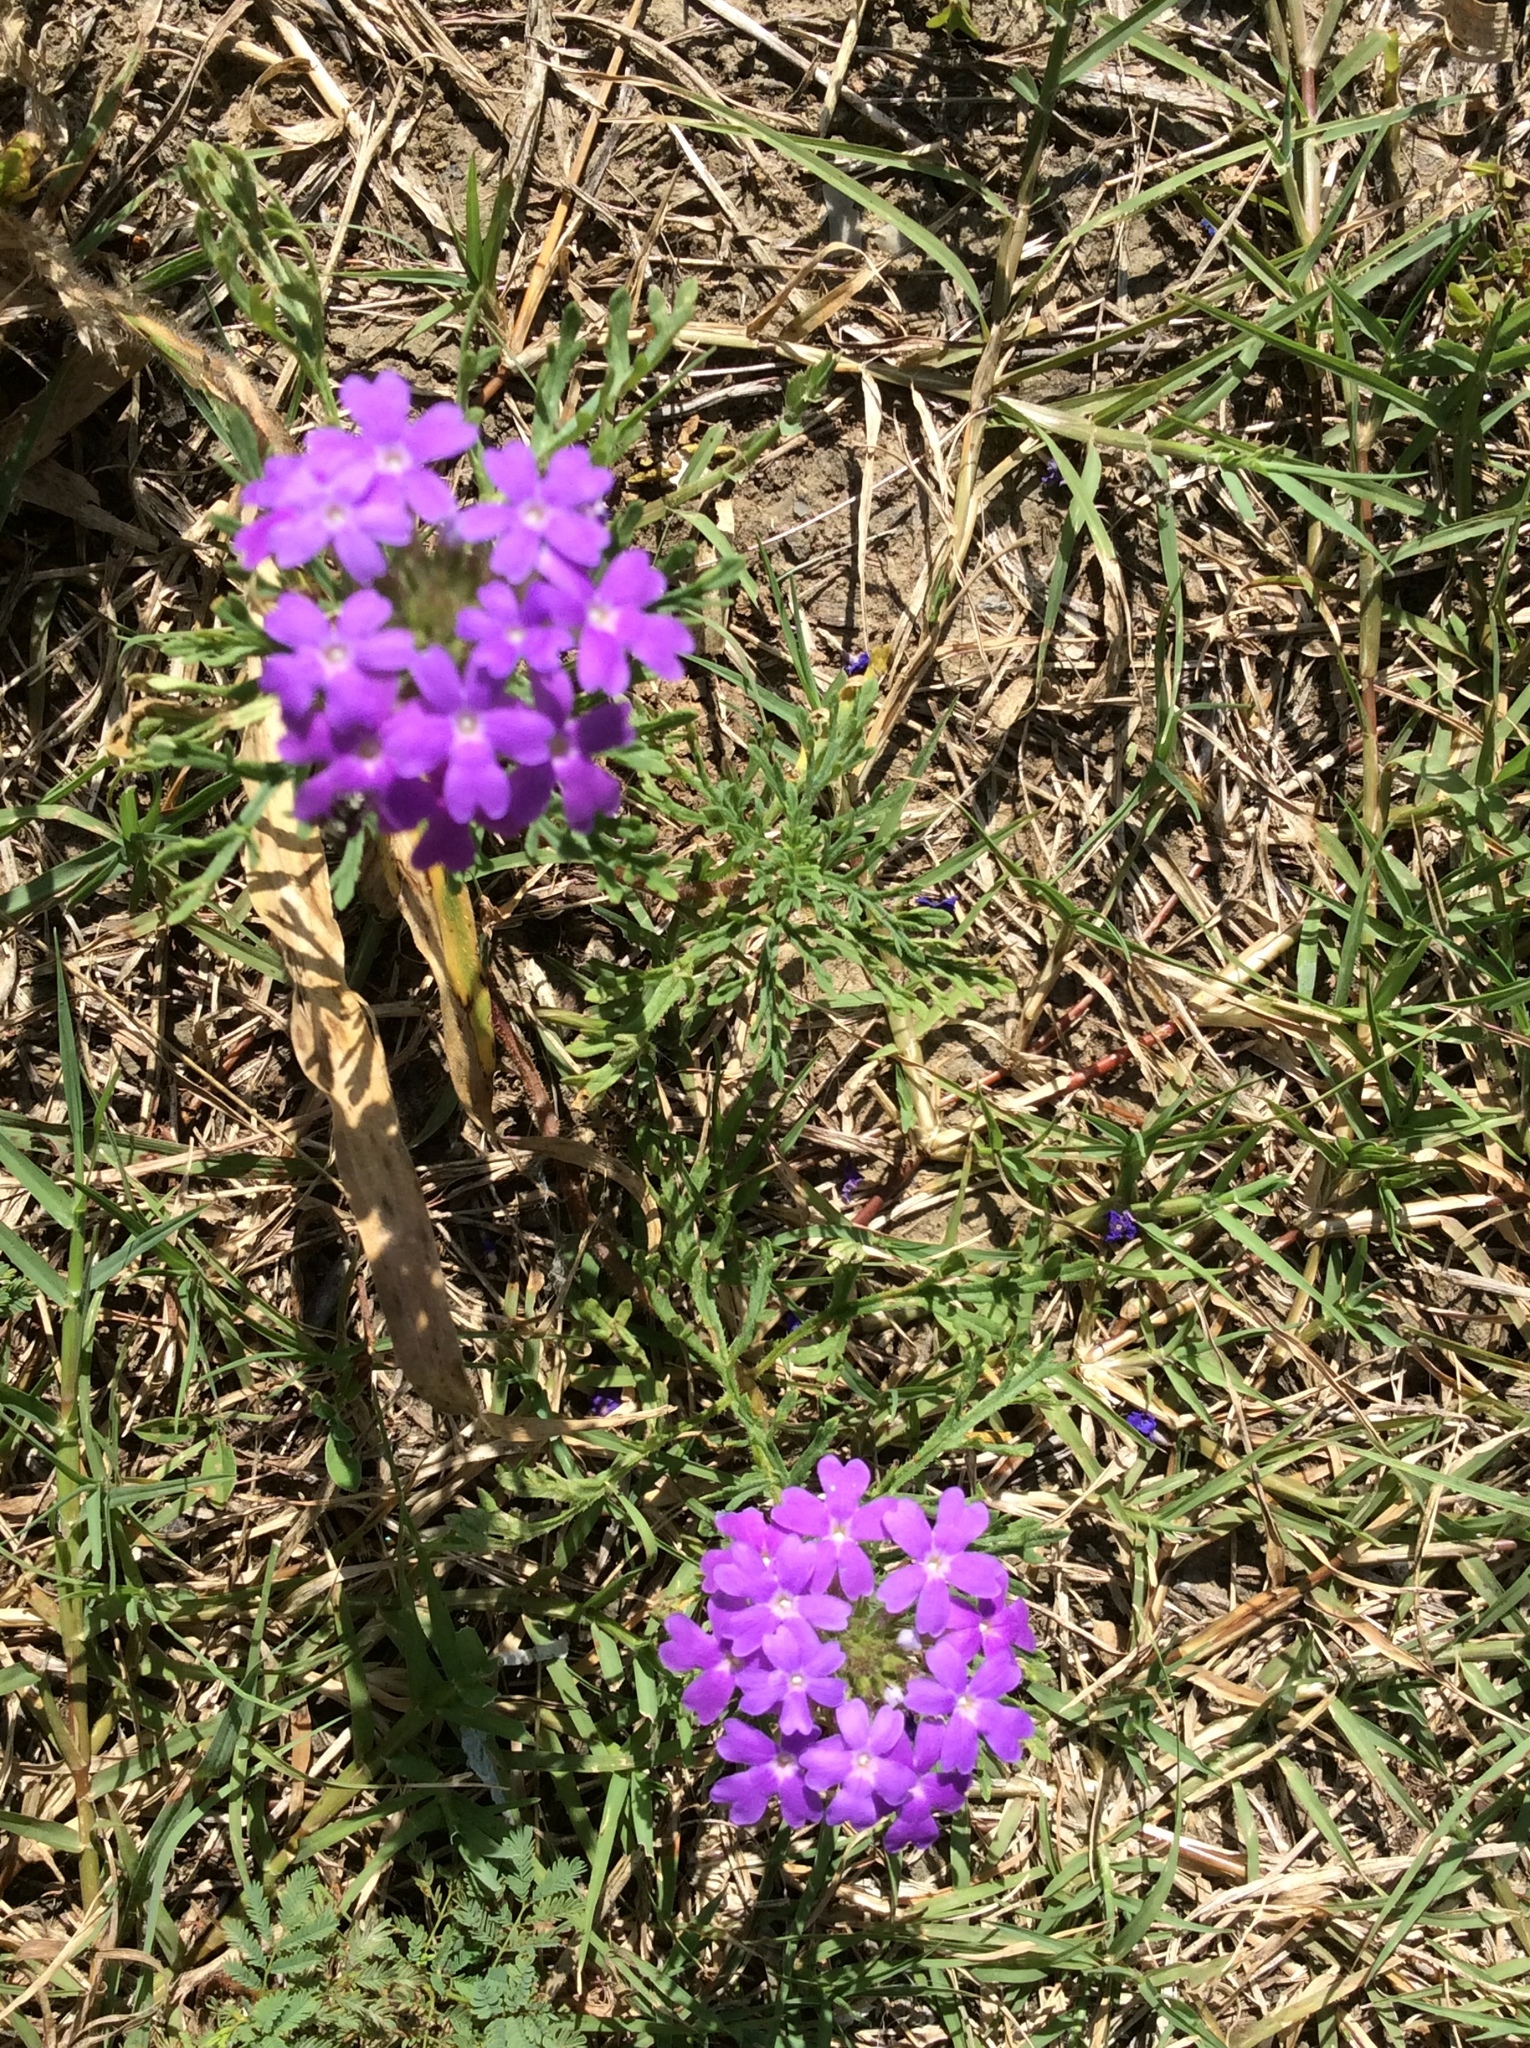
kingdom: Plantae
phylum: Tracheophyta
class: Magnoliopsida
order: Lamiales
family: Verbenaceae
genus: Verbena
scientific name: Verbena bipinnatifida
